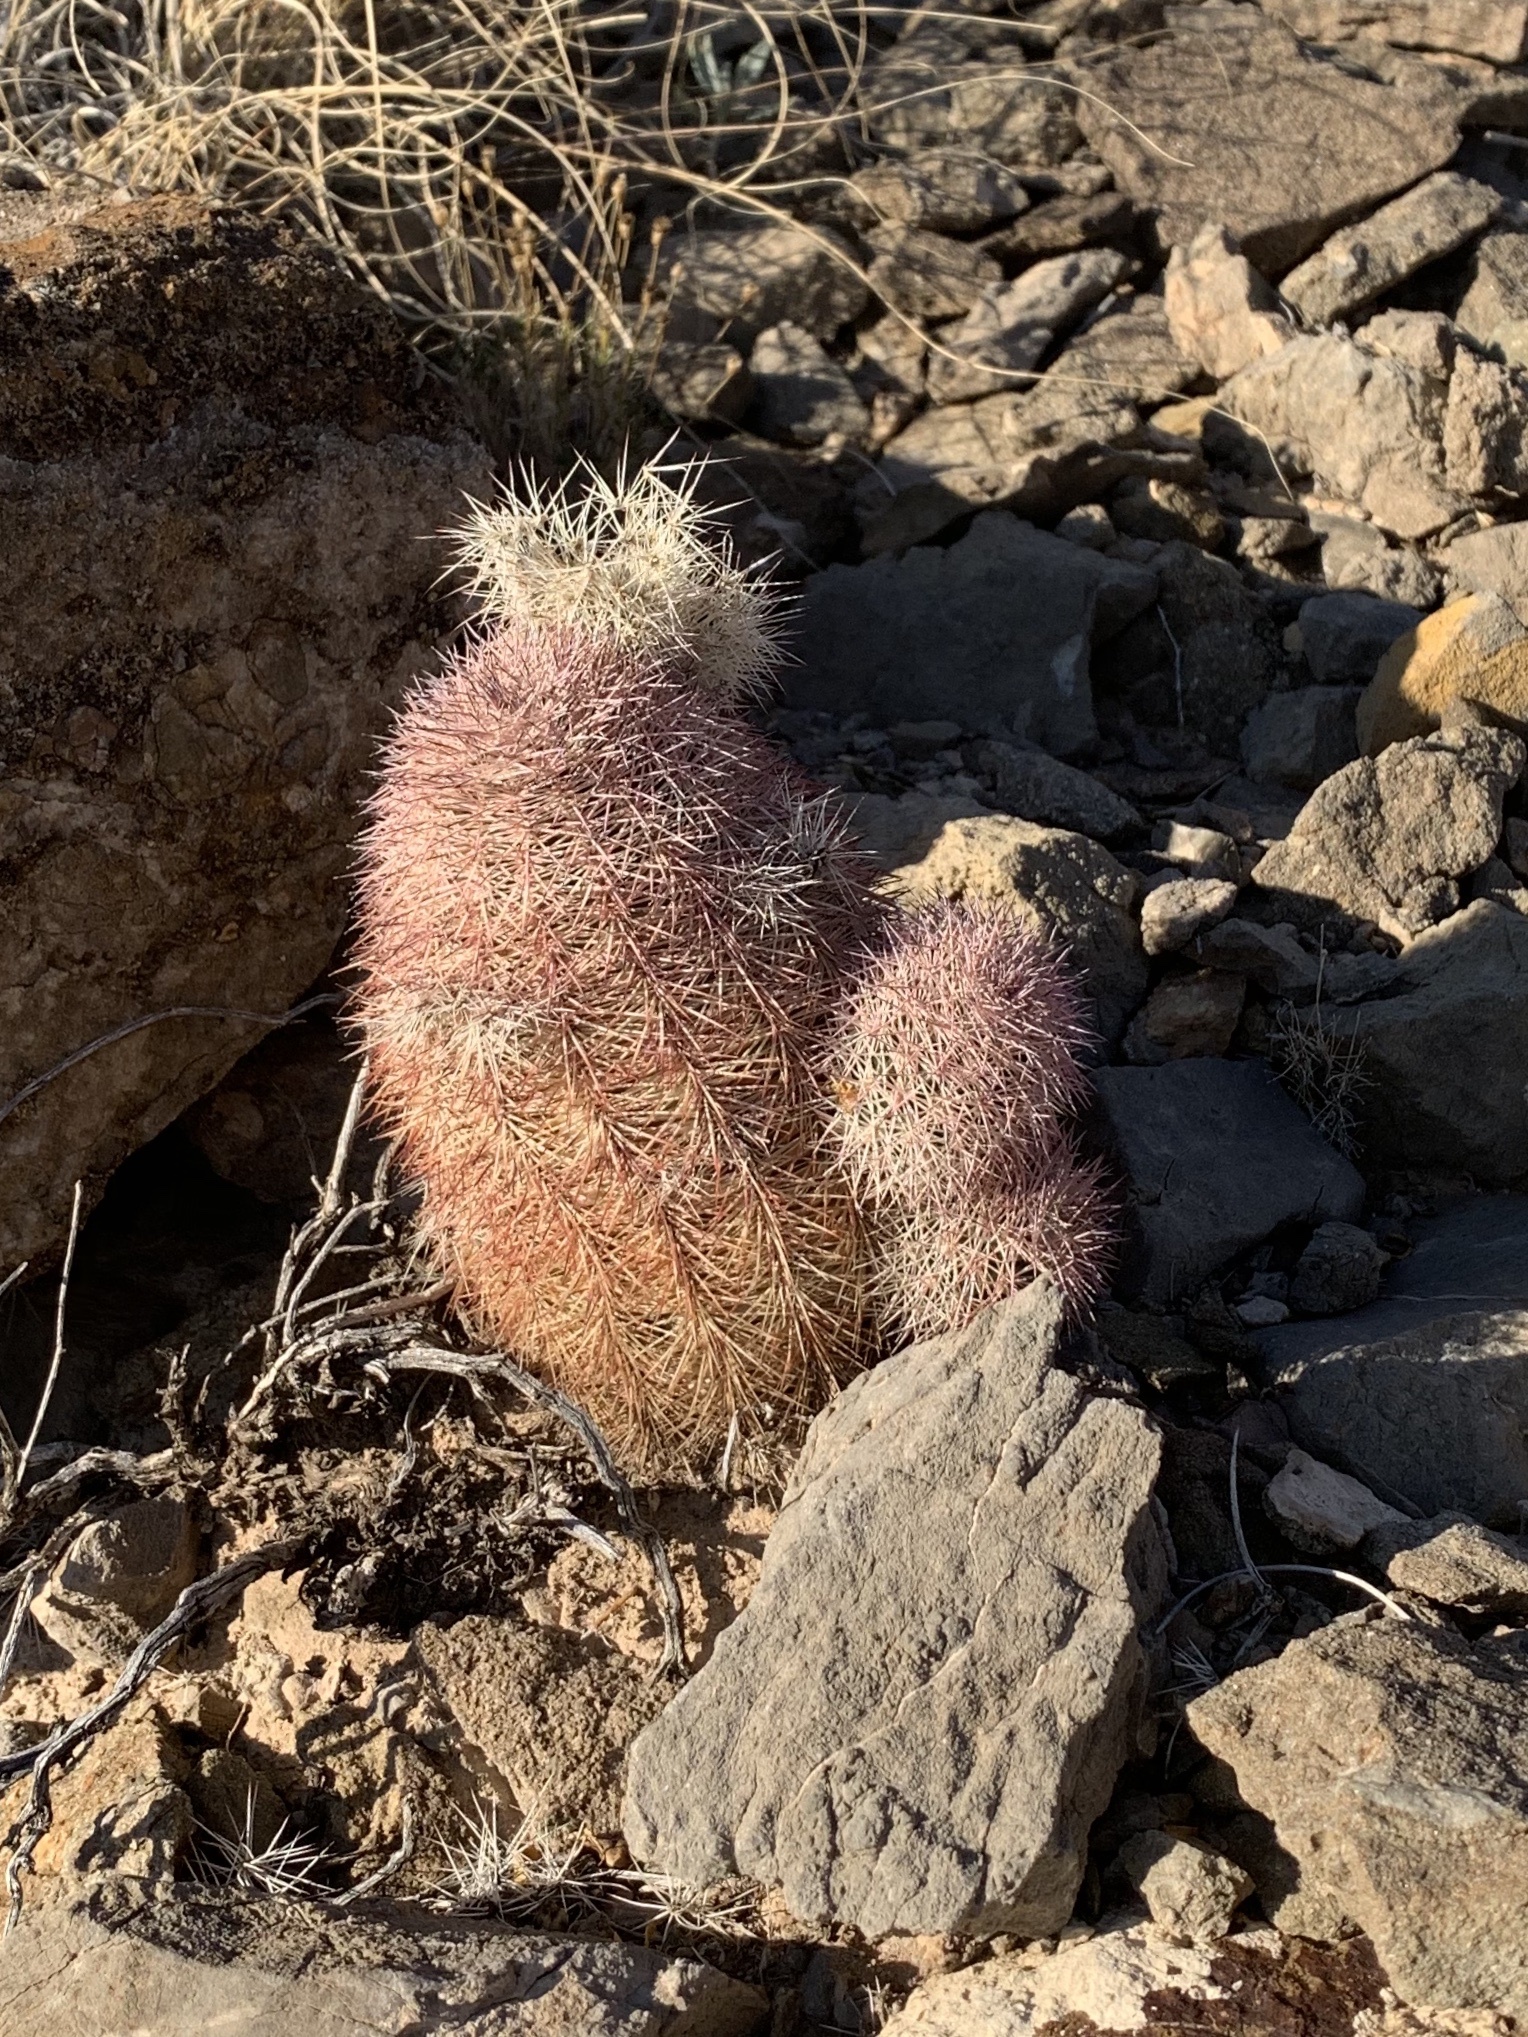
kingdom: Plantae
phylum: Tracheophyta
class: Magnoliopsida
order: Caryophyllales
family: Cactaceae
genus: Echinocereus
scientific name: Echinocereus dasyacanthus
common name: Spiny hedgehog cactus
